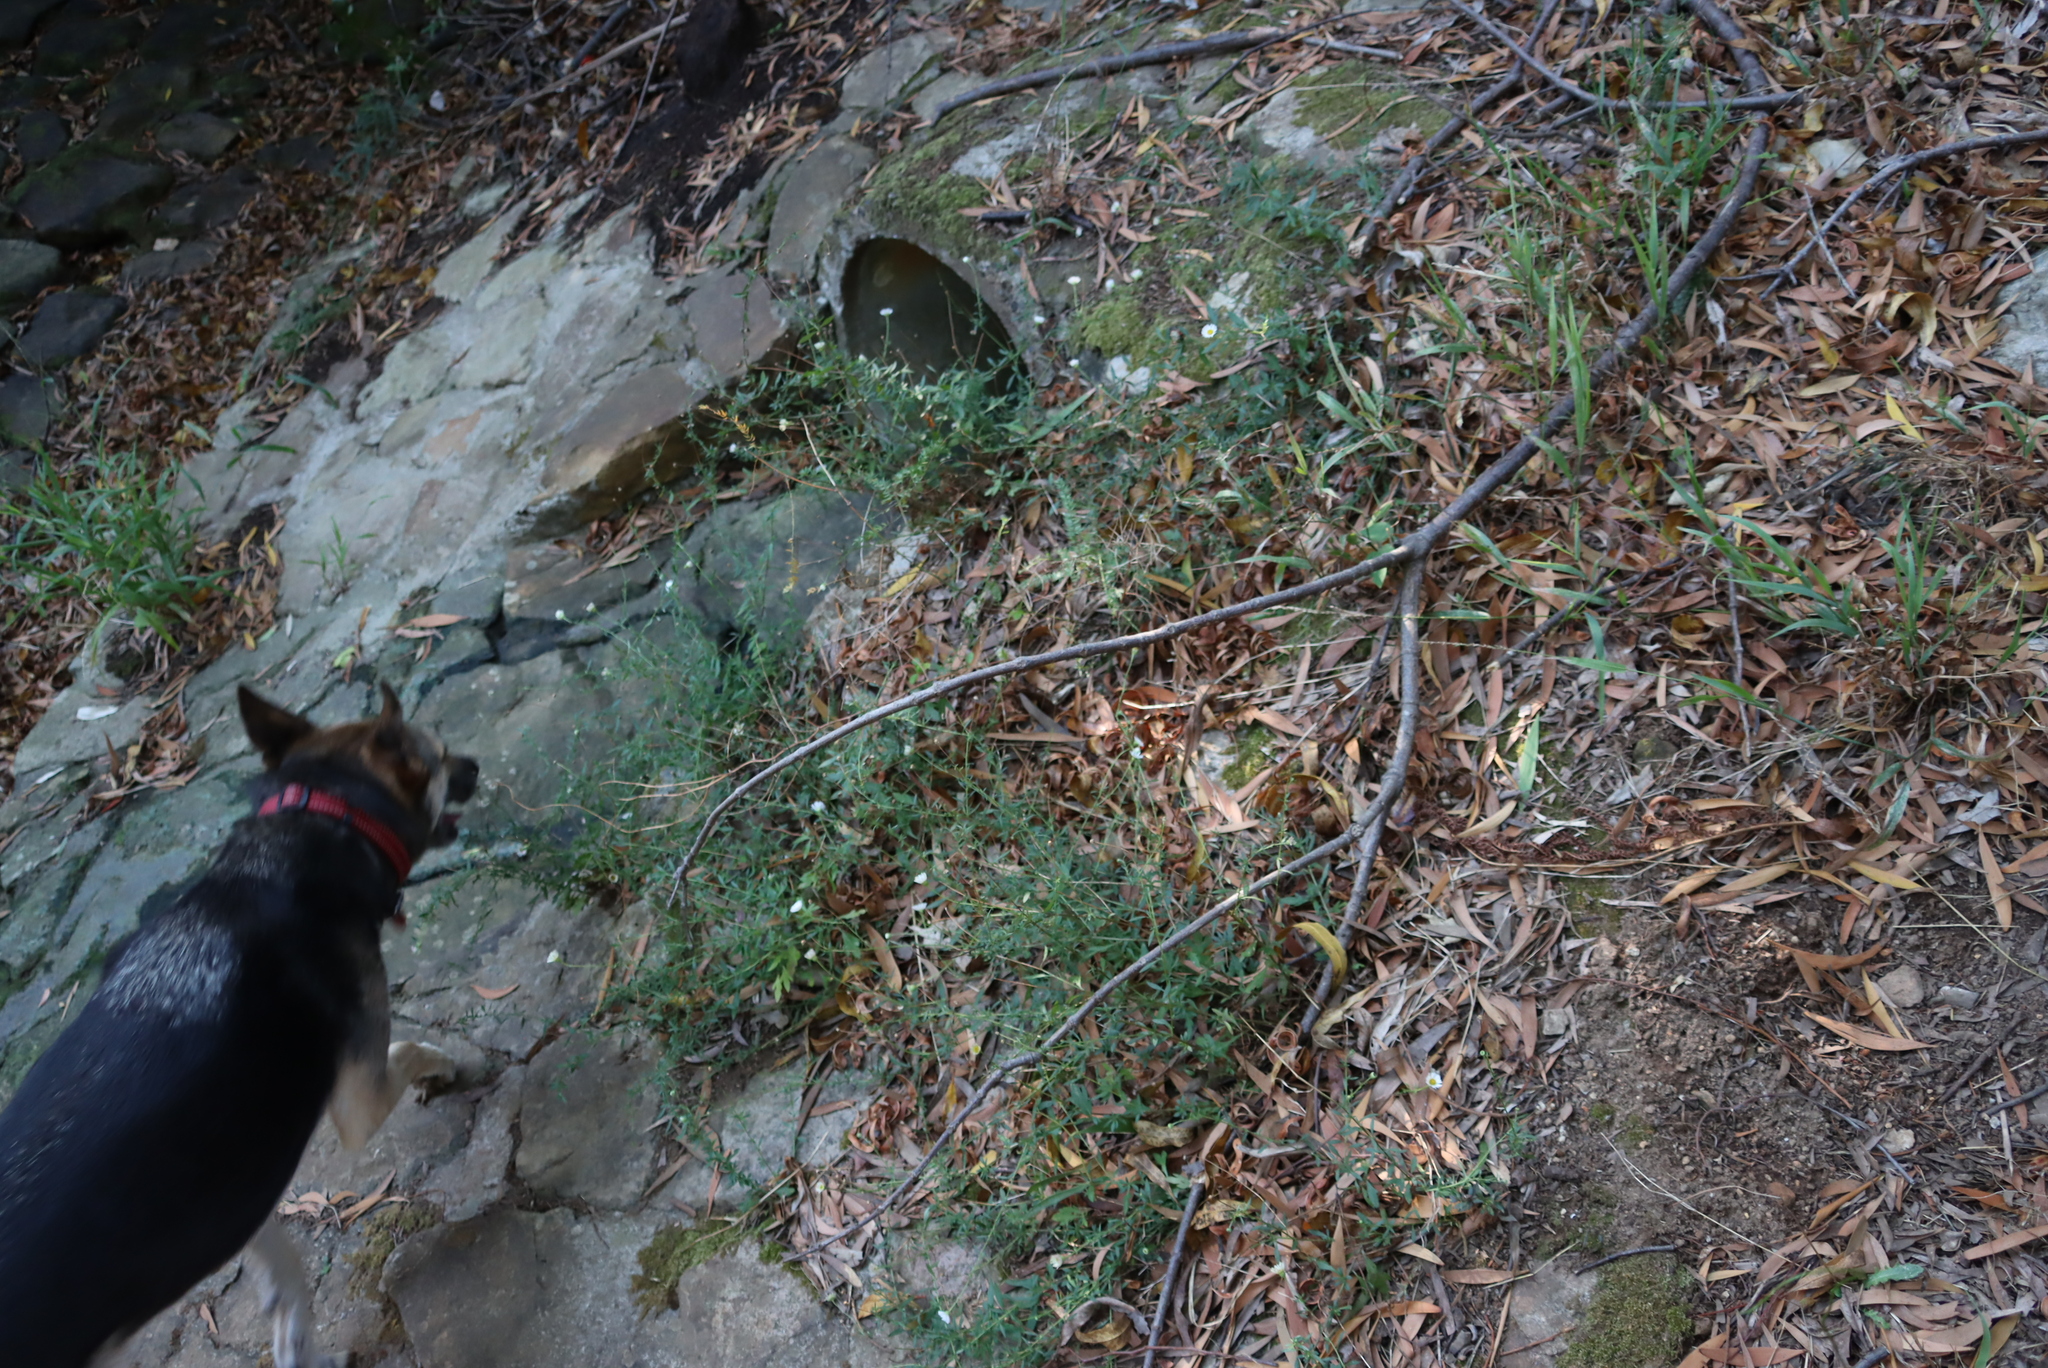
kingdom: Plantae
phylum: Tracheophyta
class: Magnoliopsida
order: Asterales
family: Asteraceae
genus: Erigeron
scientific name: Erigeron karvinskianus
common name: Mexican fleabane
